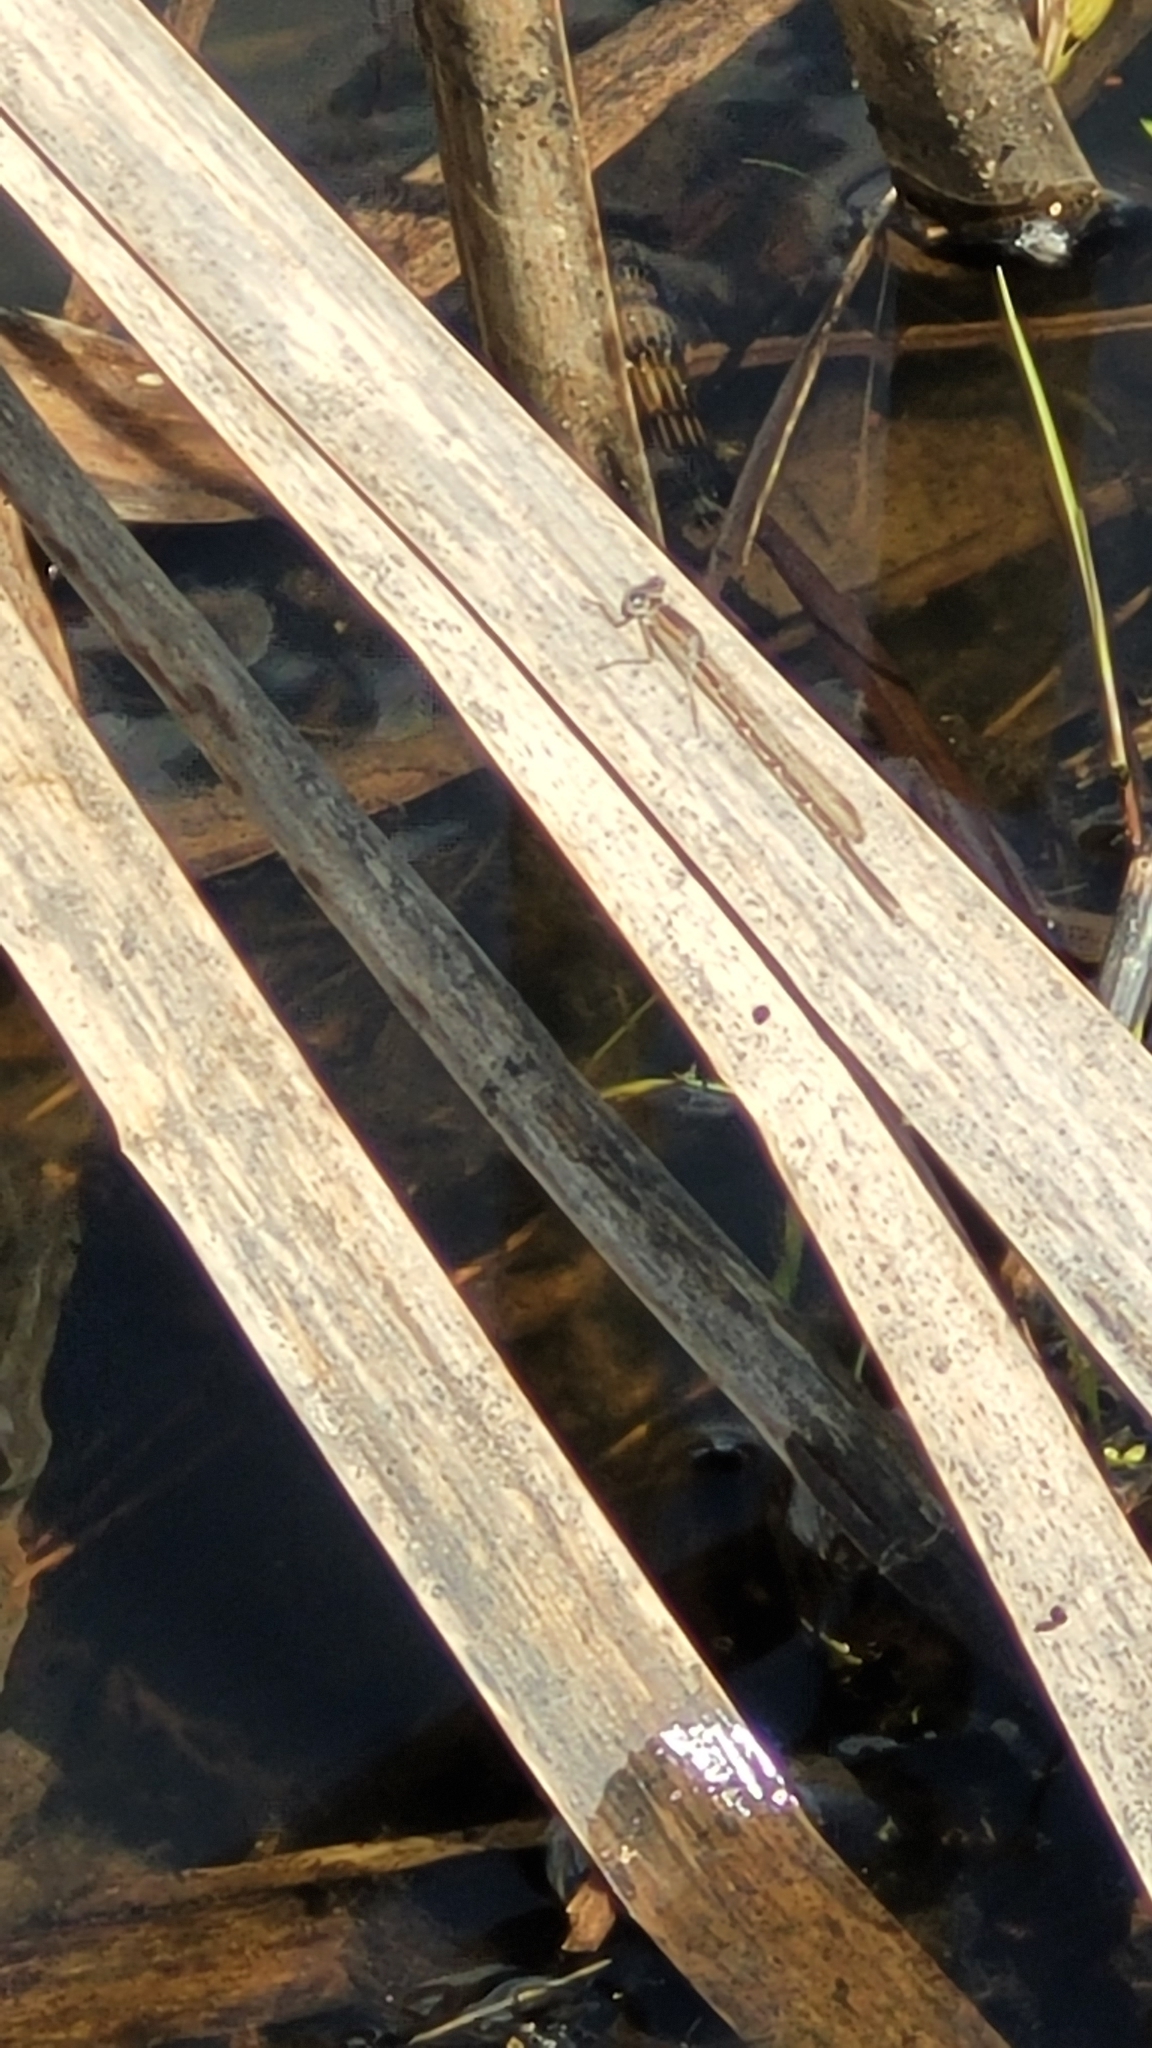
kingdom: Animalia
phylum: Arthropoda
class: Insecta
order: Odonata
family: Lestidae
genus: Sympecma
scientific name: Sympecma fusca
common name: Common winter damsel
